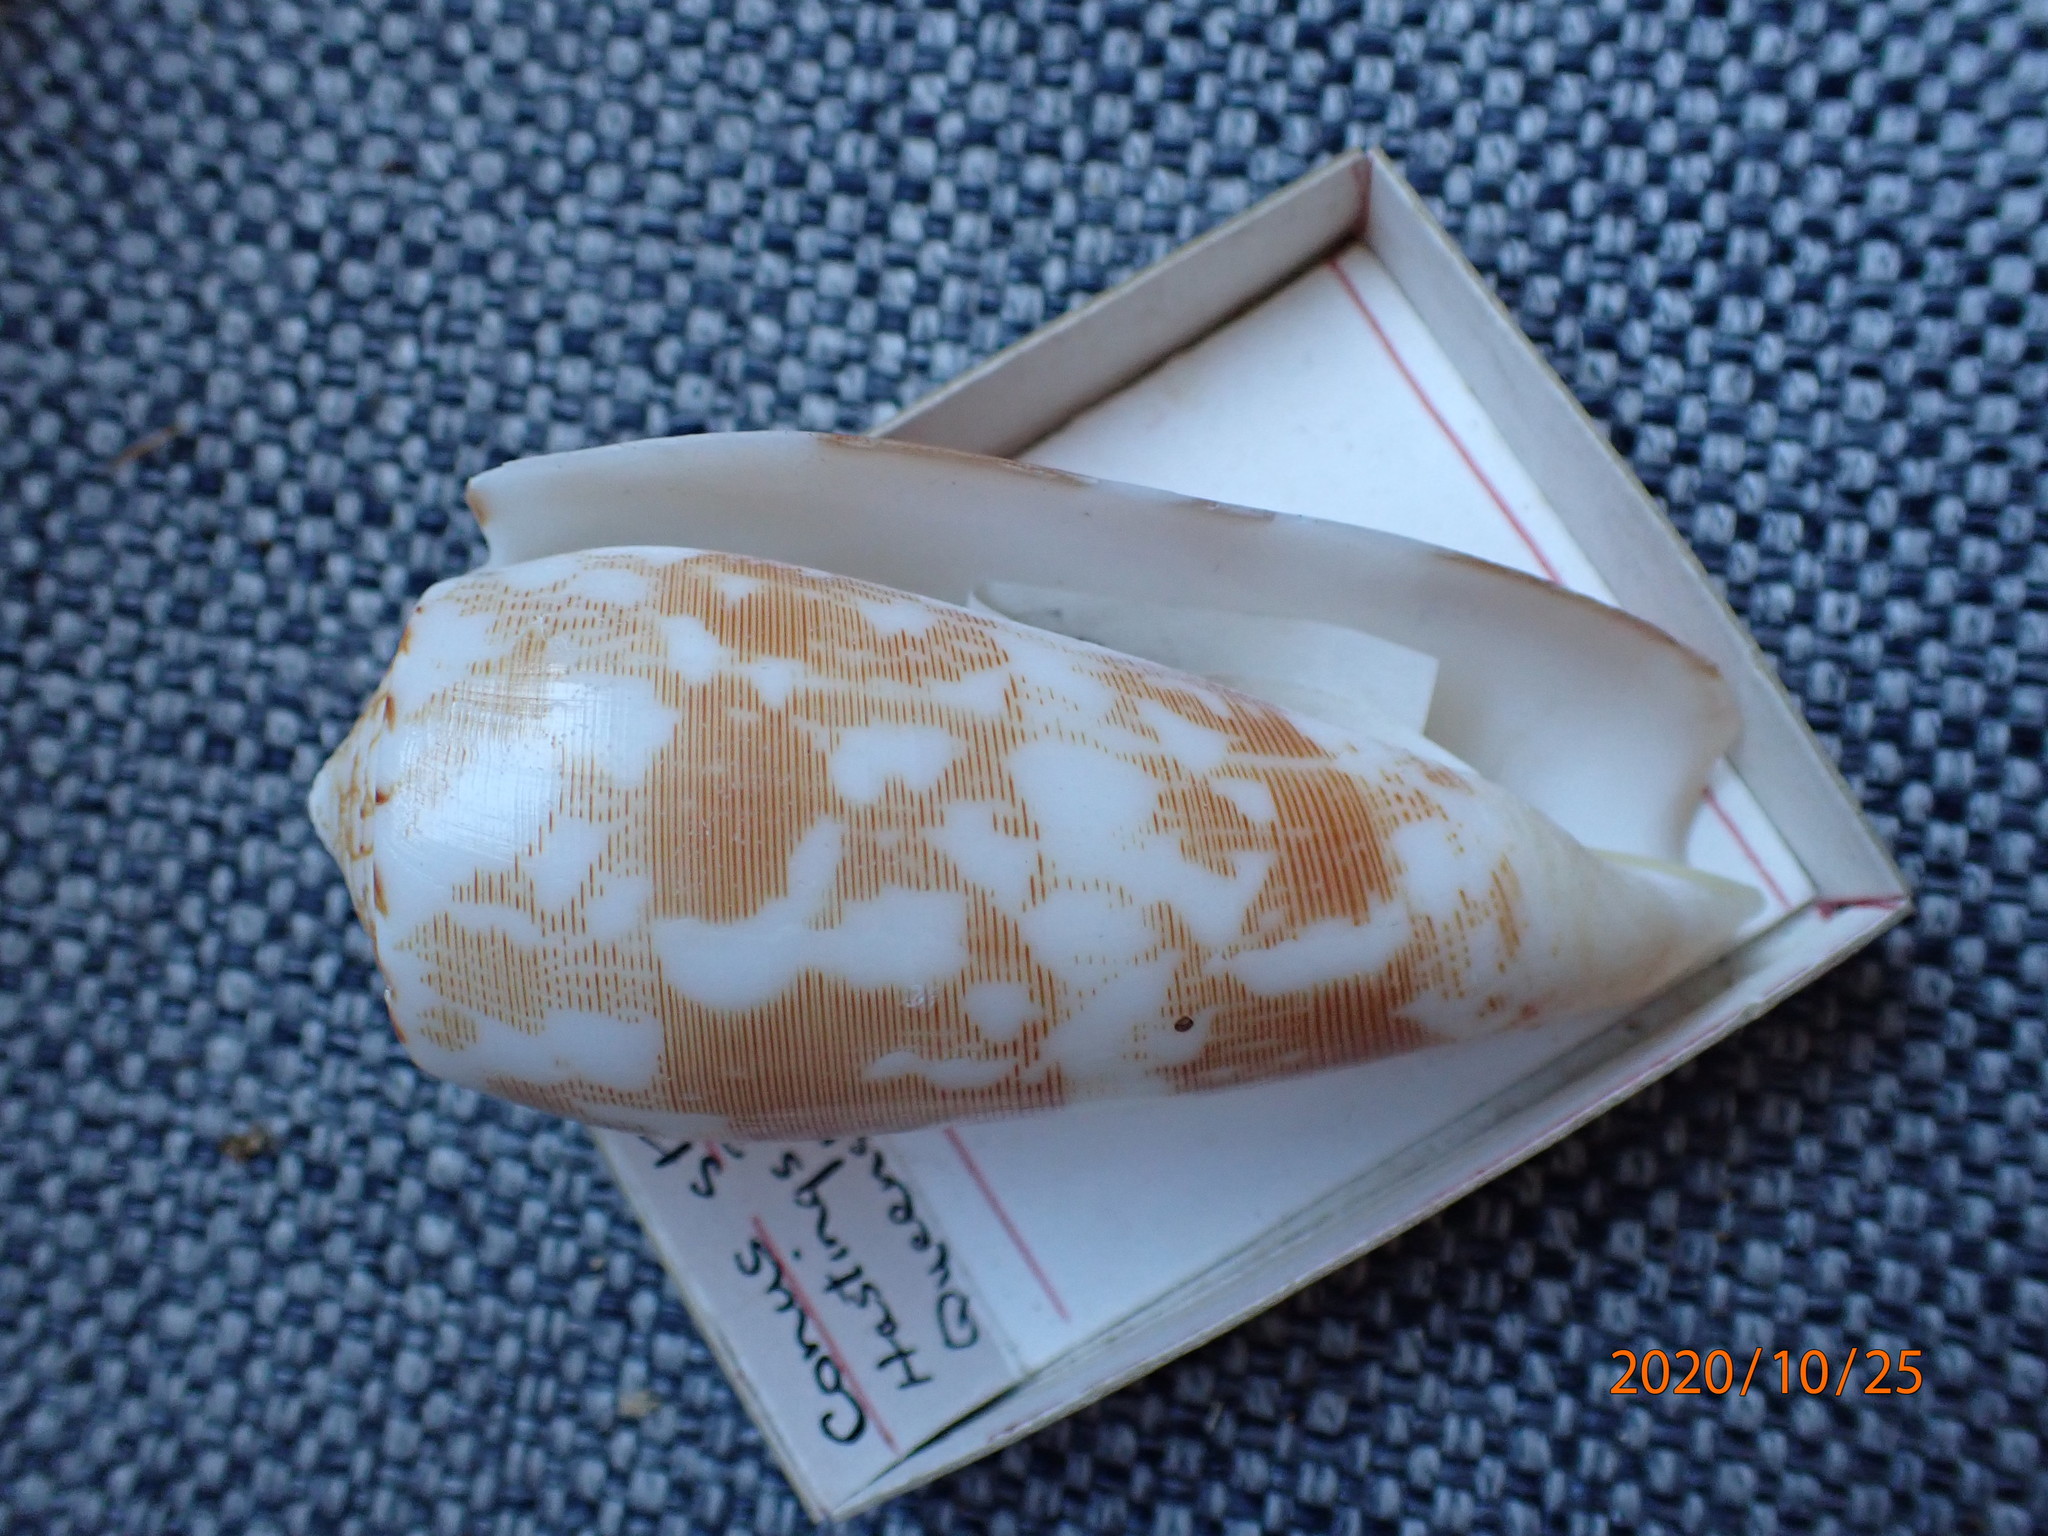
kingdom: Animalia
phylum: Mollusca
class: Gastropoda
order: Neogastropoda
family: Conidae
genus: Conus
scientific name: Conus striatus
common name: Striated cone
